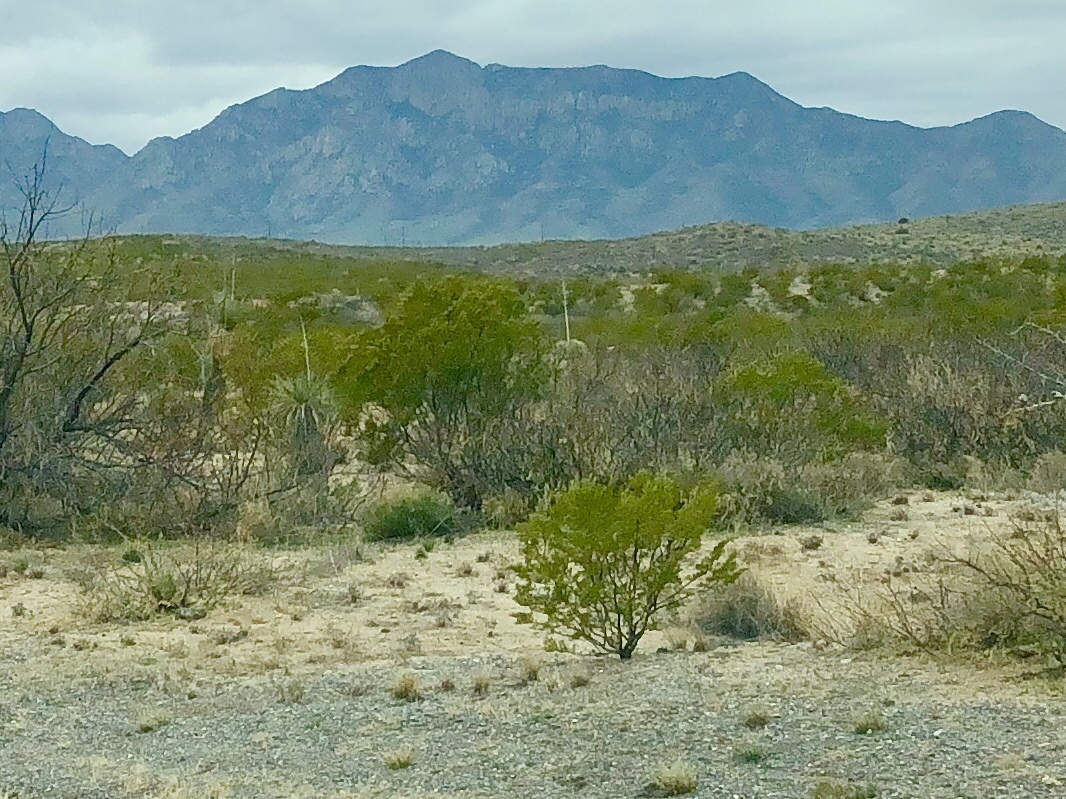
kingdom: Plantae
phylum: Tracheophyta
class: Magnoliopsida
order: Zygophyllales
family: Zygophyllaceae
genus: Larrea
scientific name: Larrea tridentata
